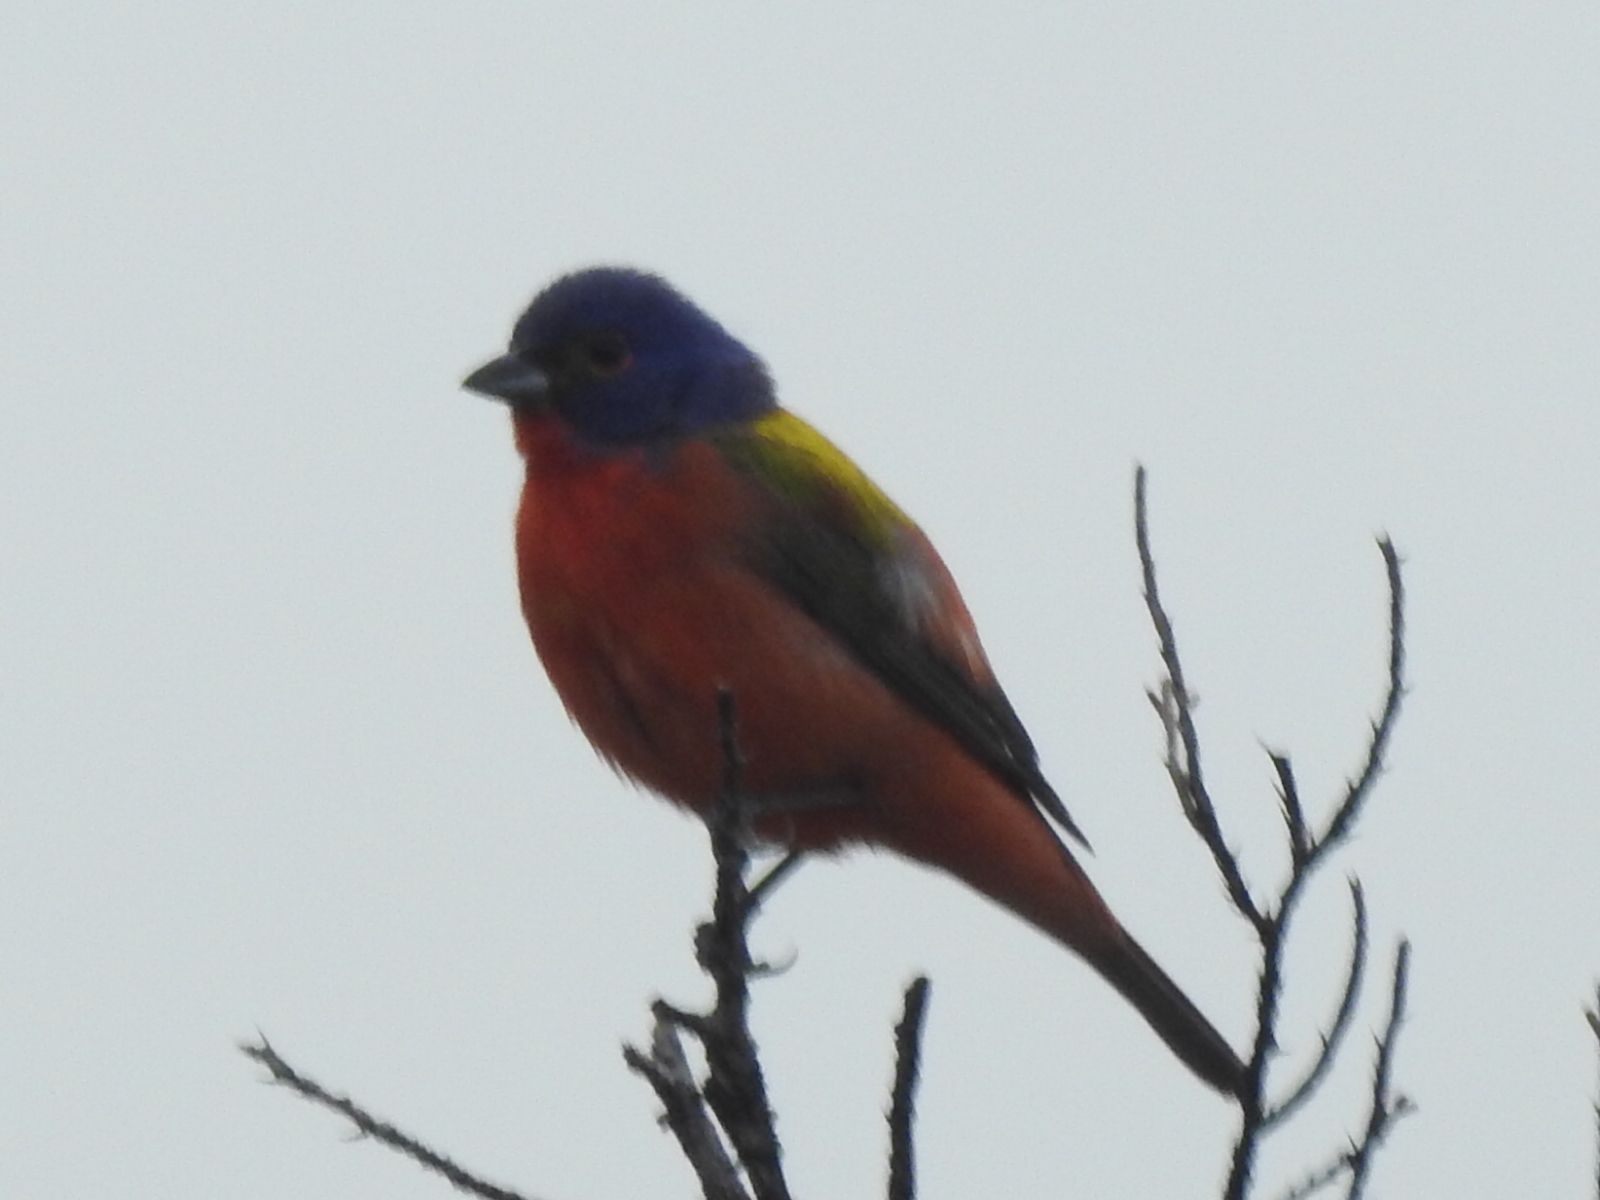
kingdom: Animalia
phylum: Chordata
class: Aves
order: Passeriformes
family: Cardinalidae
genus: Passerina
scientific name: Passerina ciris
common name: Painted bunting
